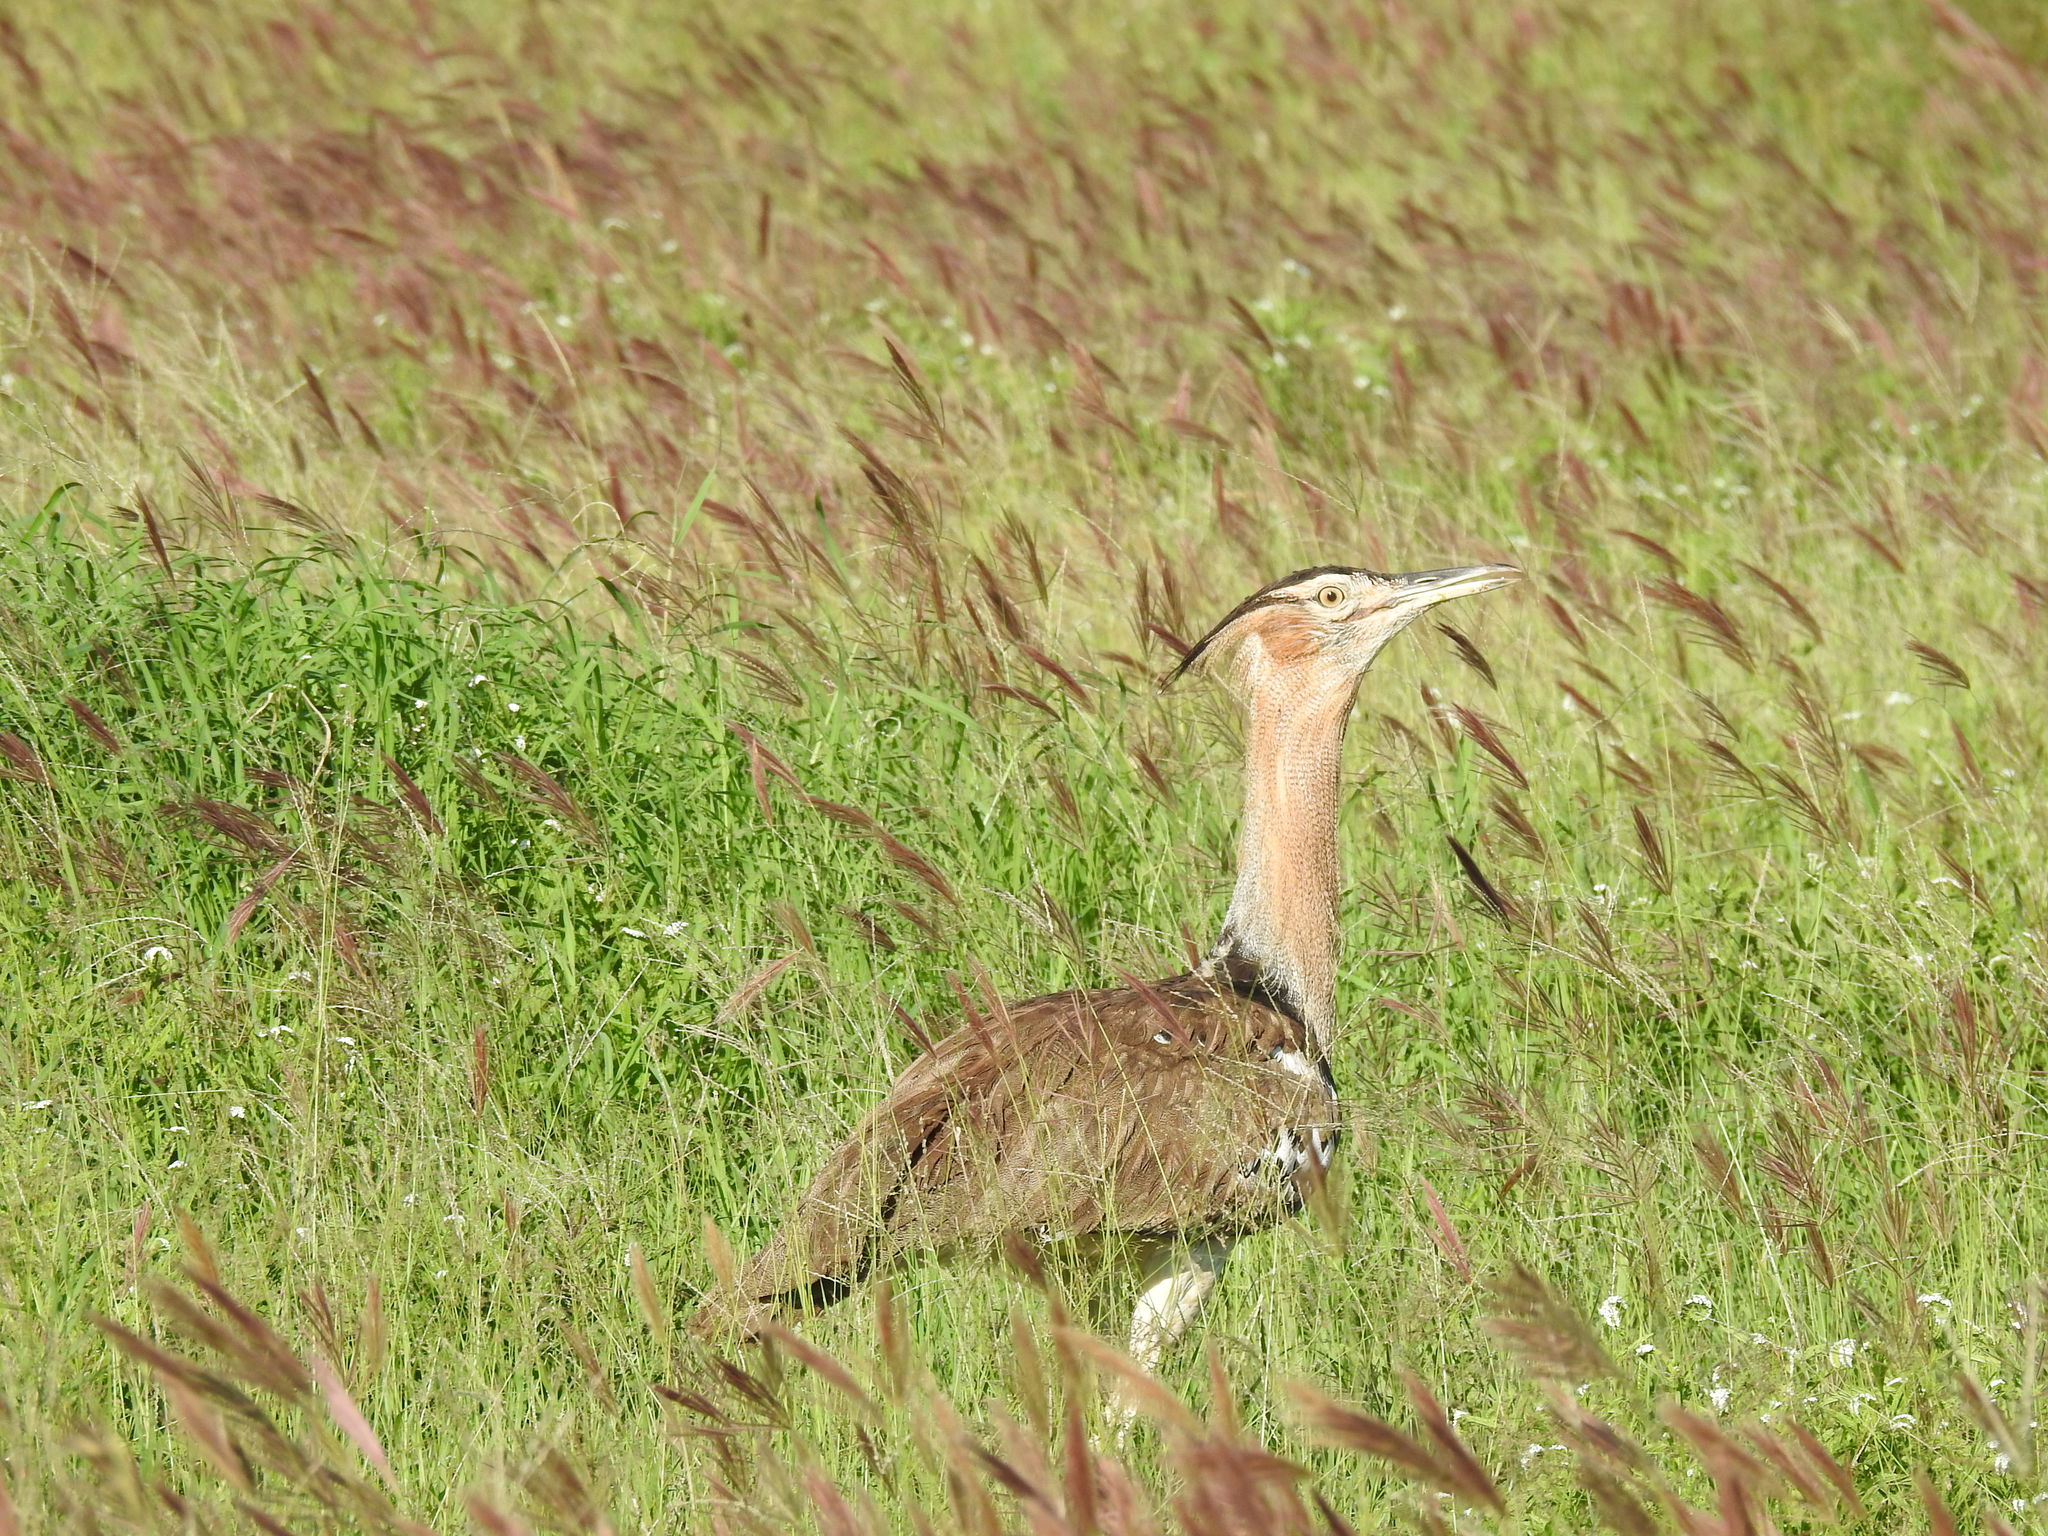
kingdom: Animalia
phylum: Chordata
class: Aves
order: Otidiformes
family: Otididae
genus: Ardeotis
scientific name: Ardeotis kori
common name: Kori bustard
